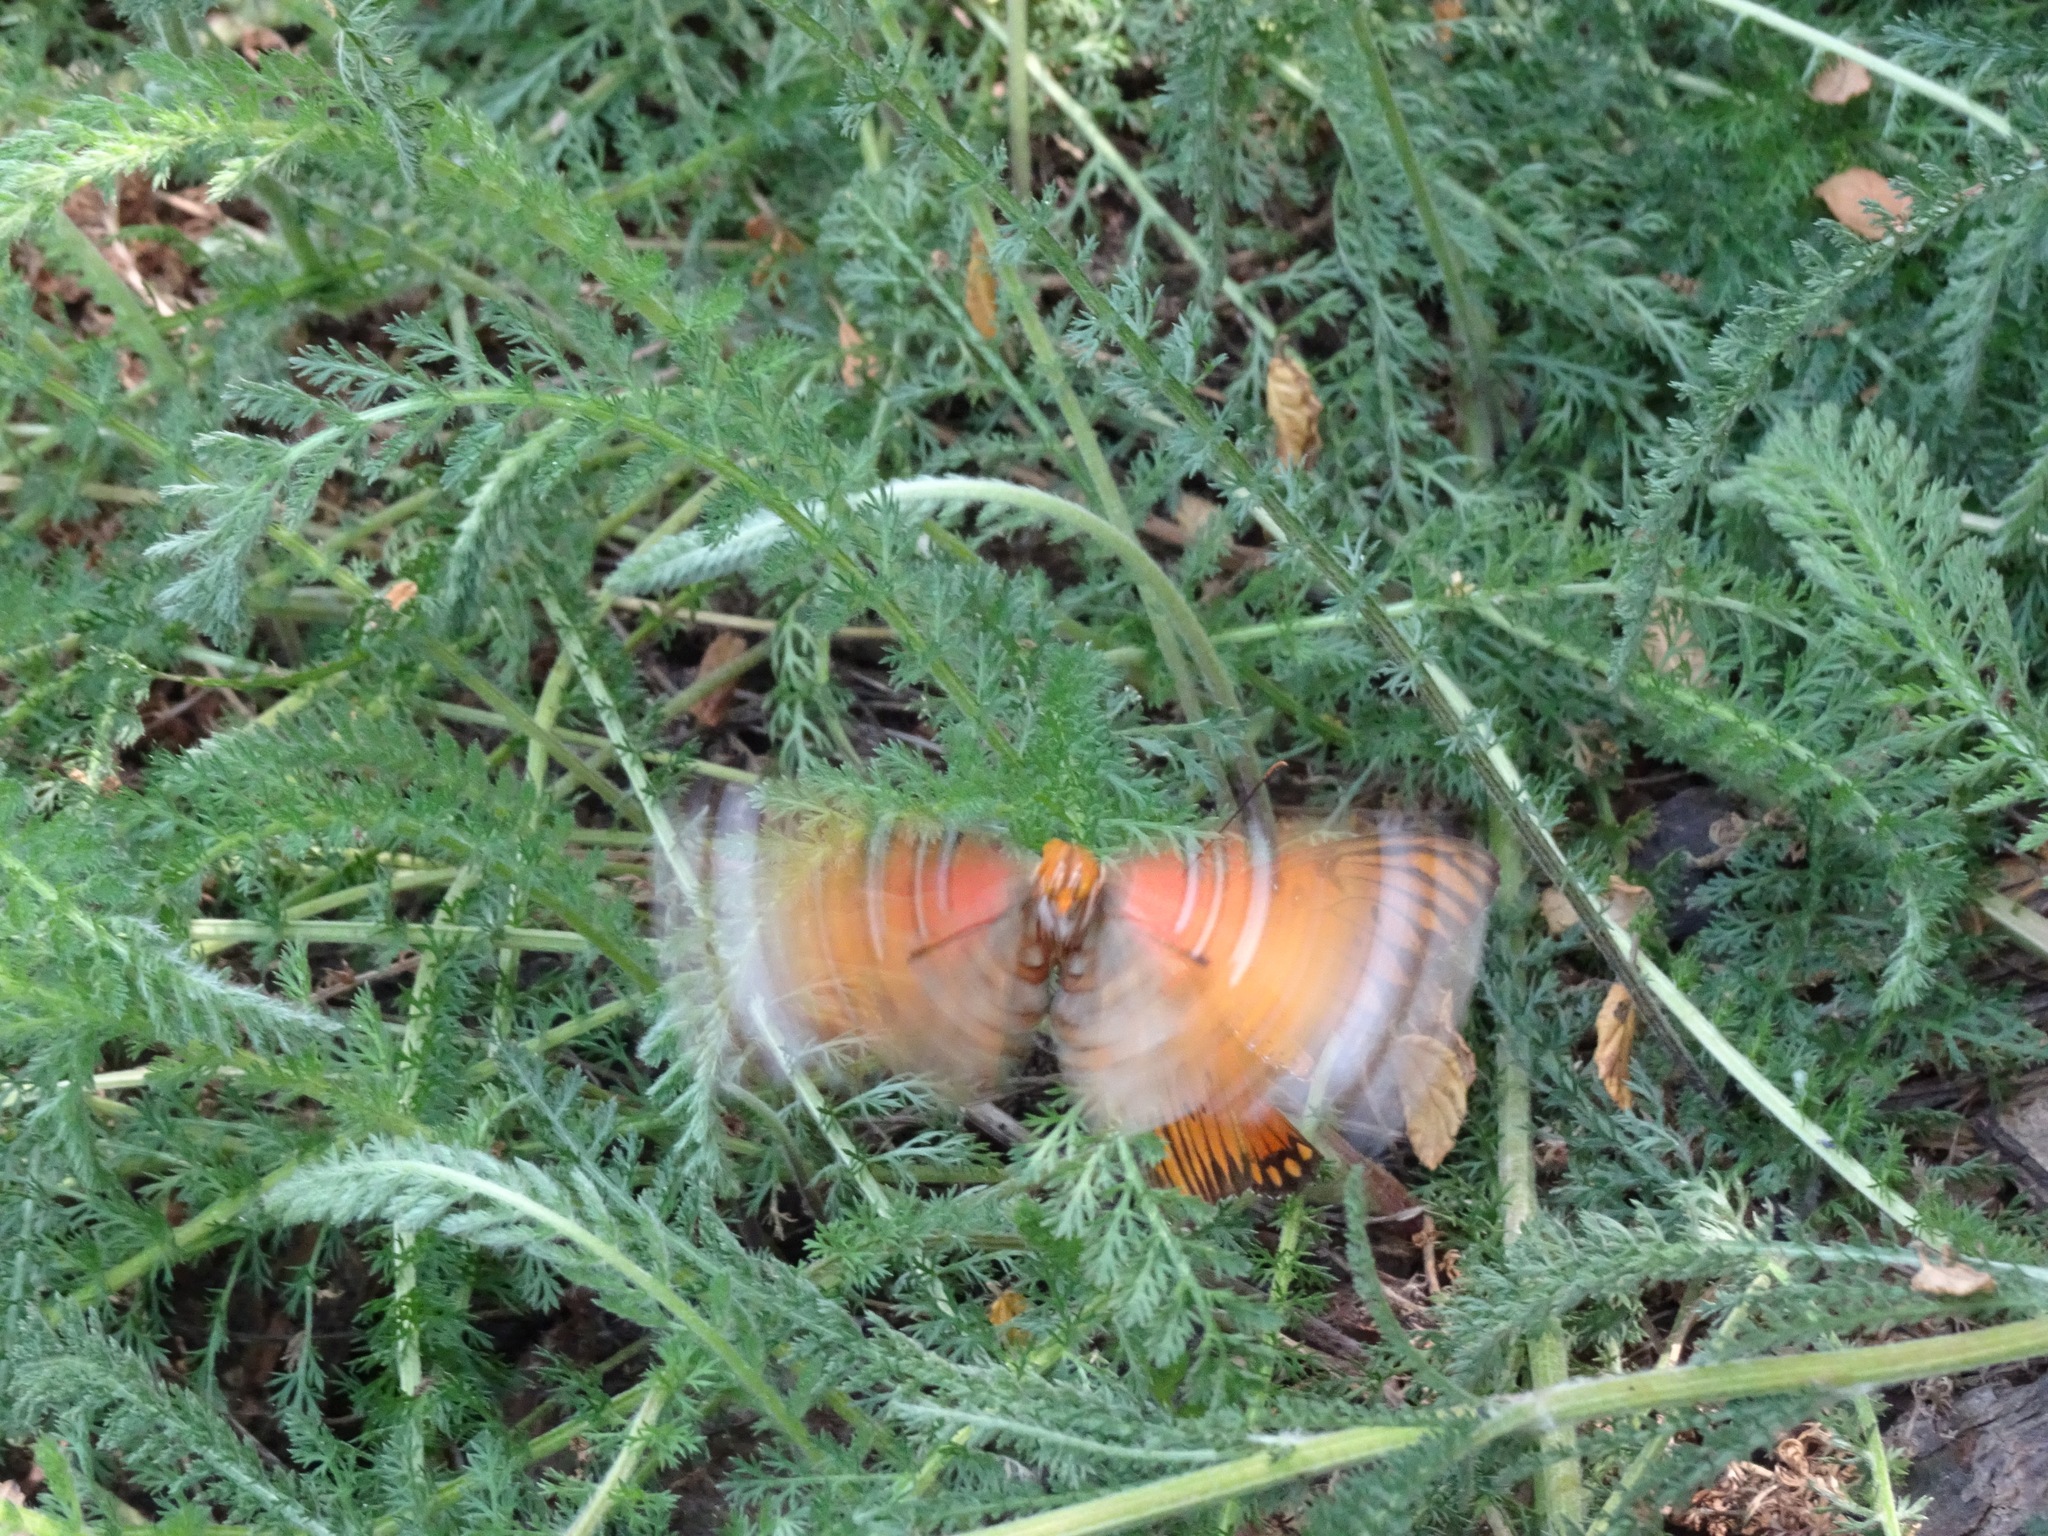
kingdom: Animalia
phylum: Arthropoda
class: Insecta
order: Lepidoptera
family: Nymphalidae
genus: Dione
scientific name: Dione vanillae
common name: Gulf fritillary
